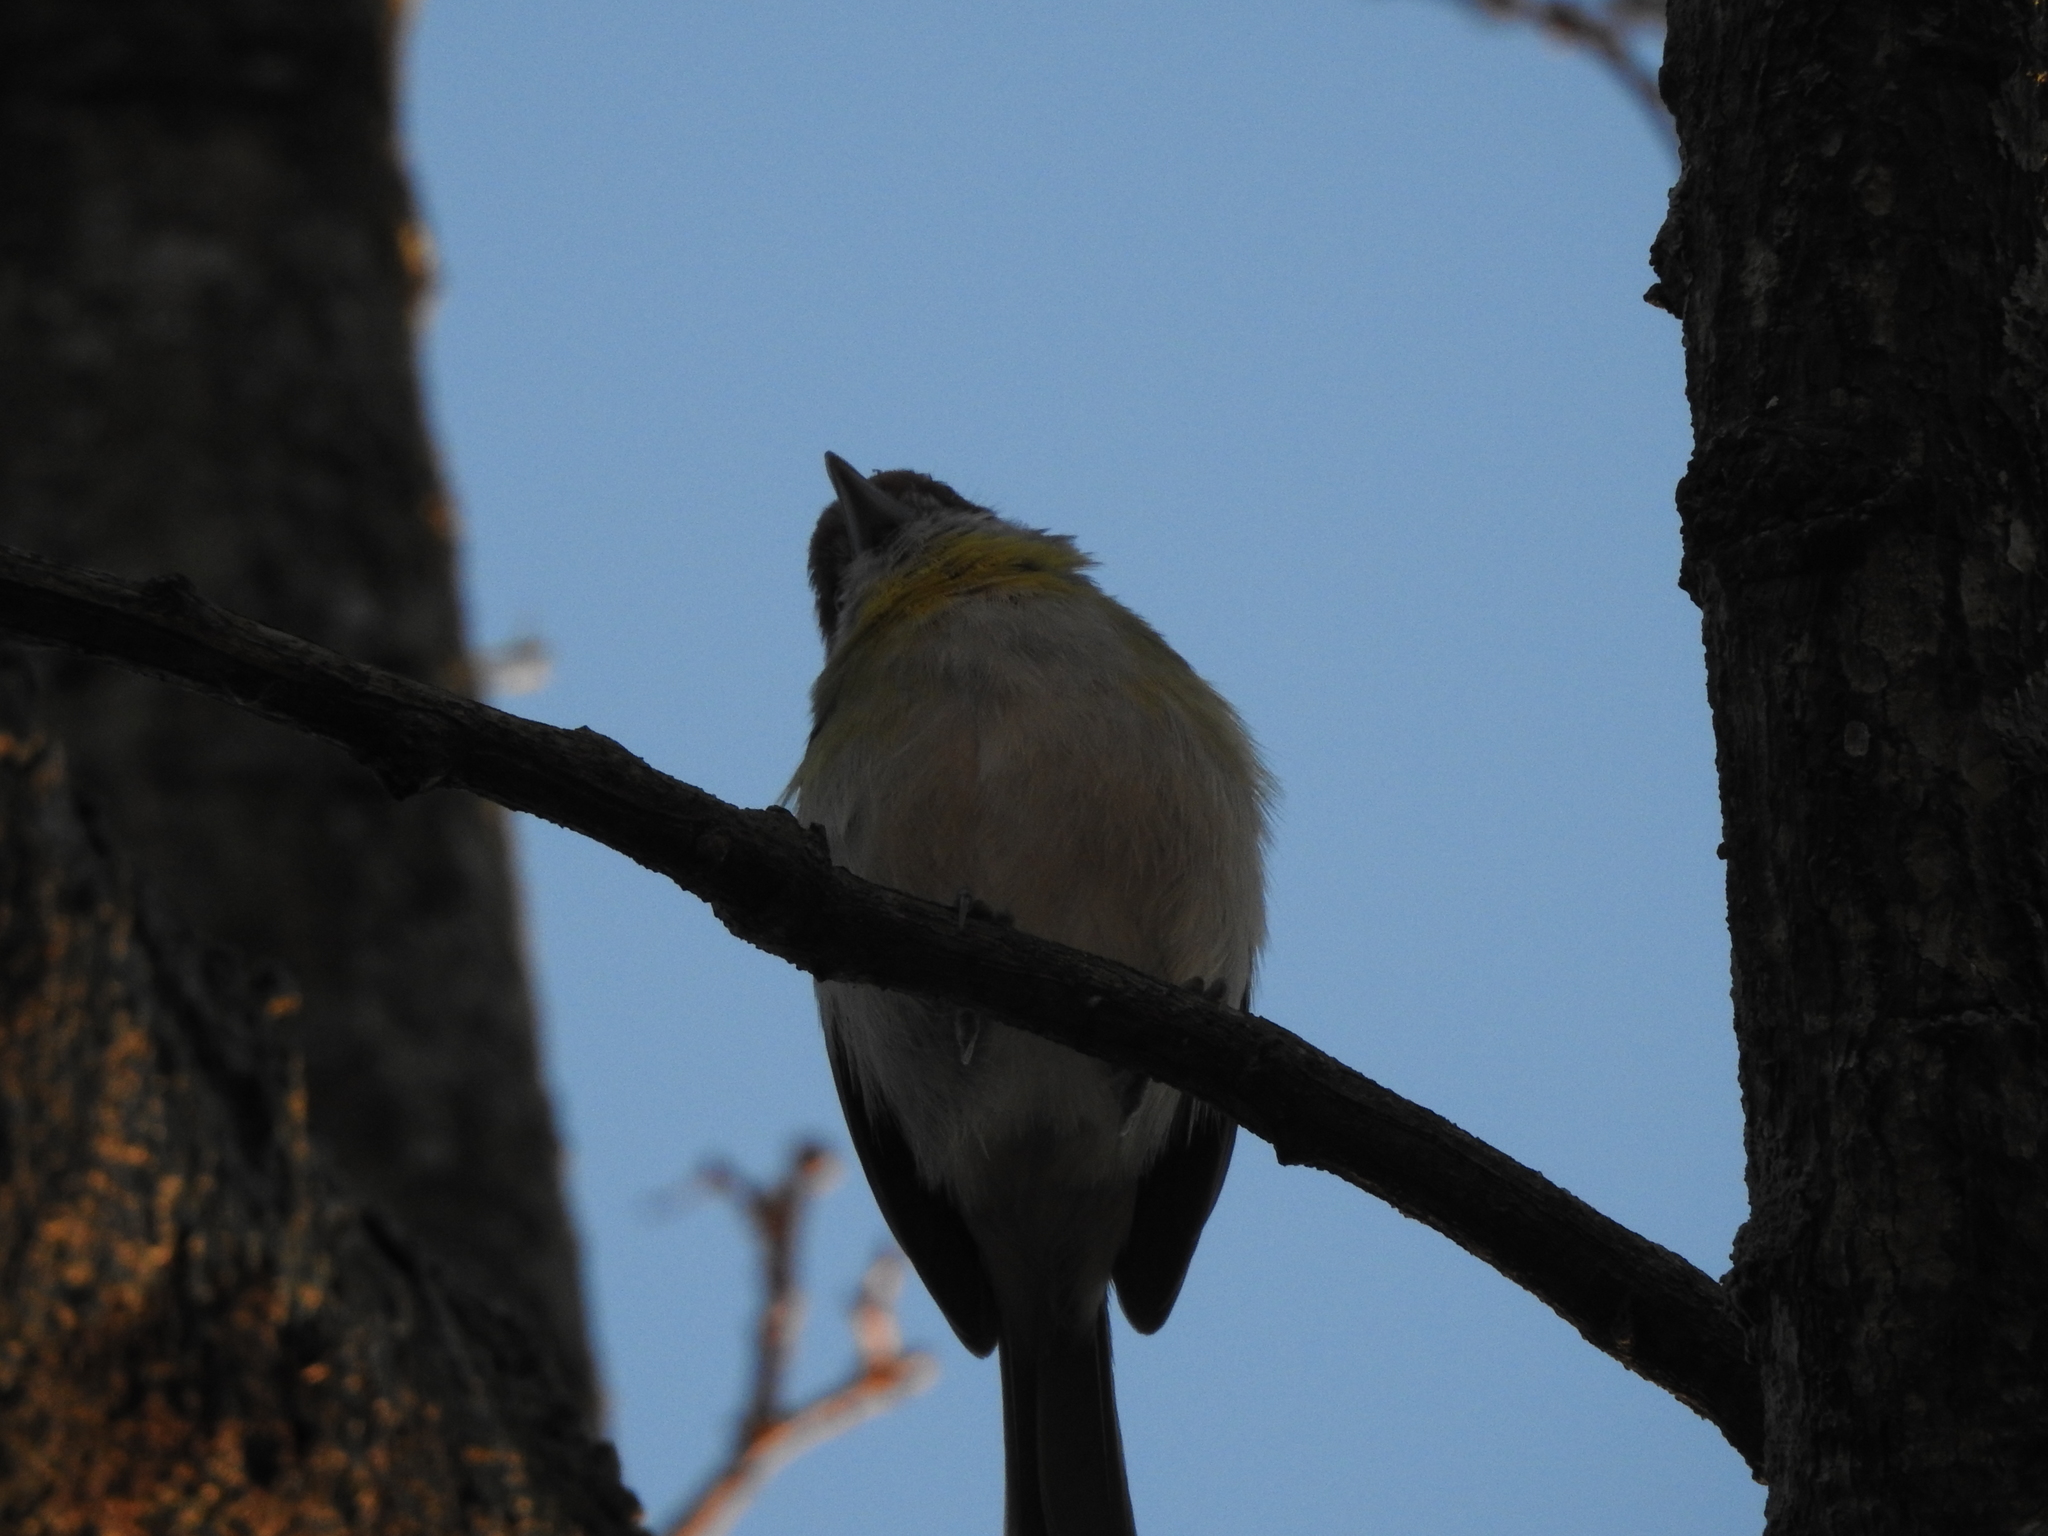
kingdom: Animalia
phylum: Chordata
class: Aves
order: Passeriformes
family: Vireonidae
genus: Cyclarhis
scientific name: Cyclarhis gujanensis
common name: Rufous-browed peppershrike
